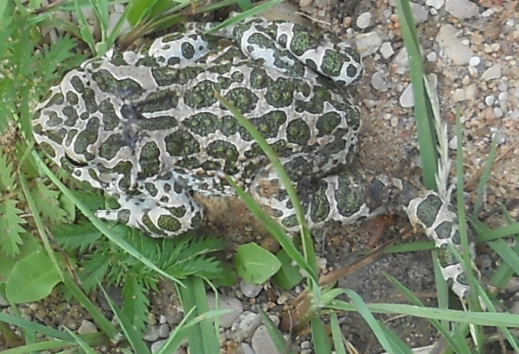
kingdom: Animalia
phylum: Chordata
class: Amphibia
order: Anura
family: Bufonidae
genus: Bufotes
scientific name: Bufotes viridis
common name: European green toad
